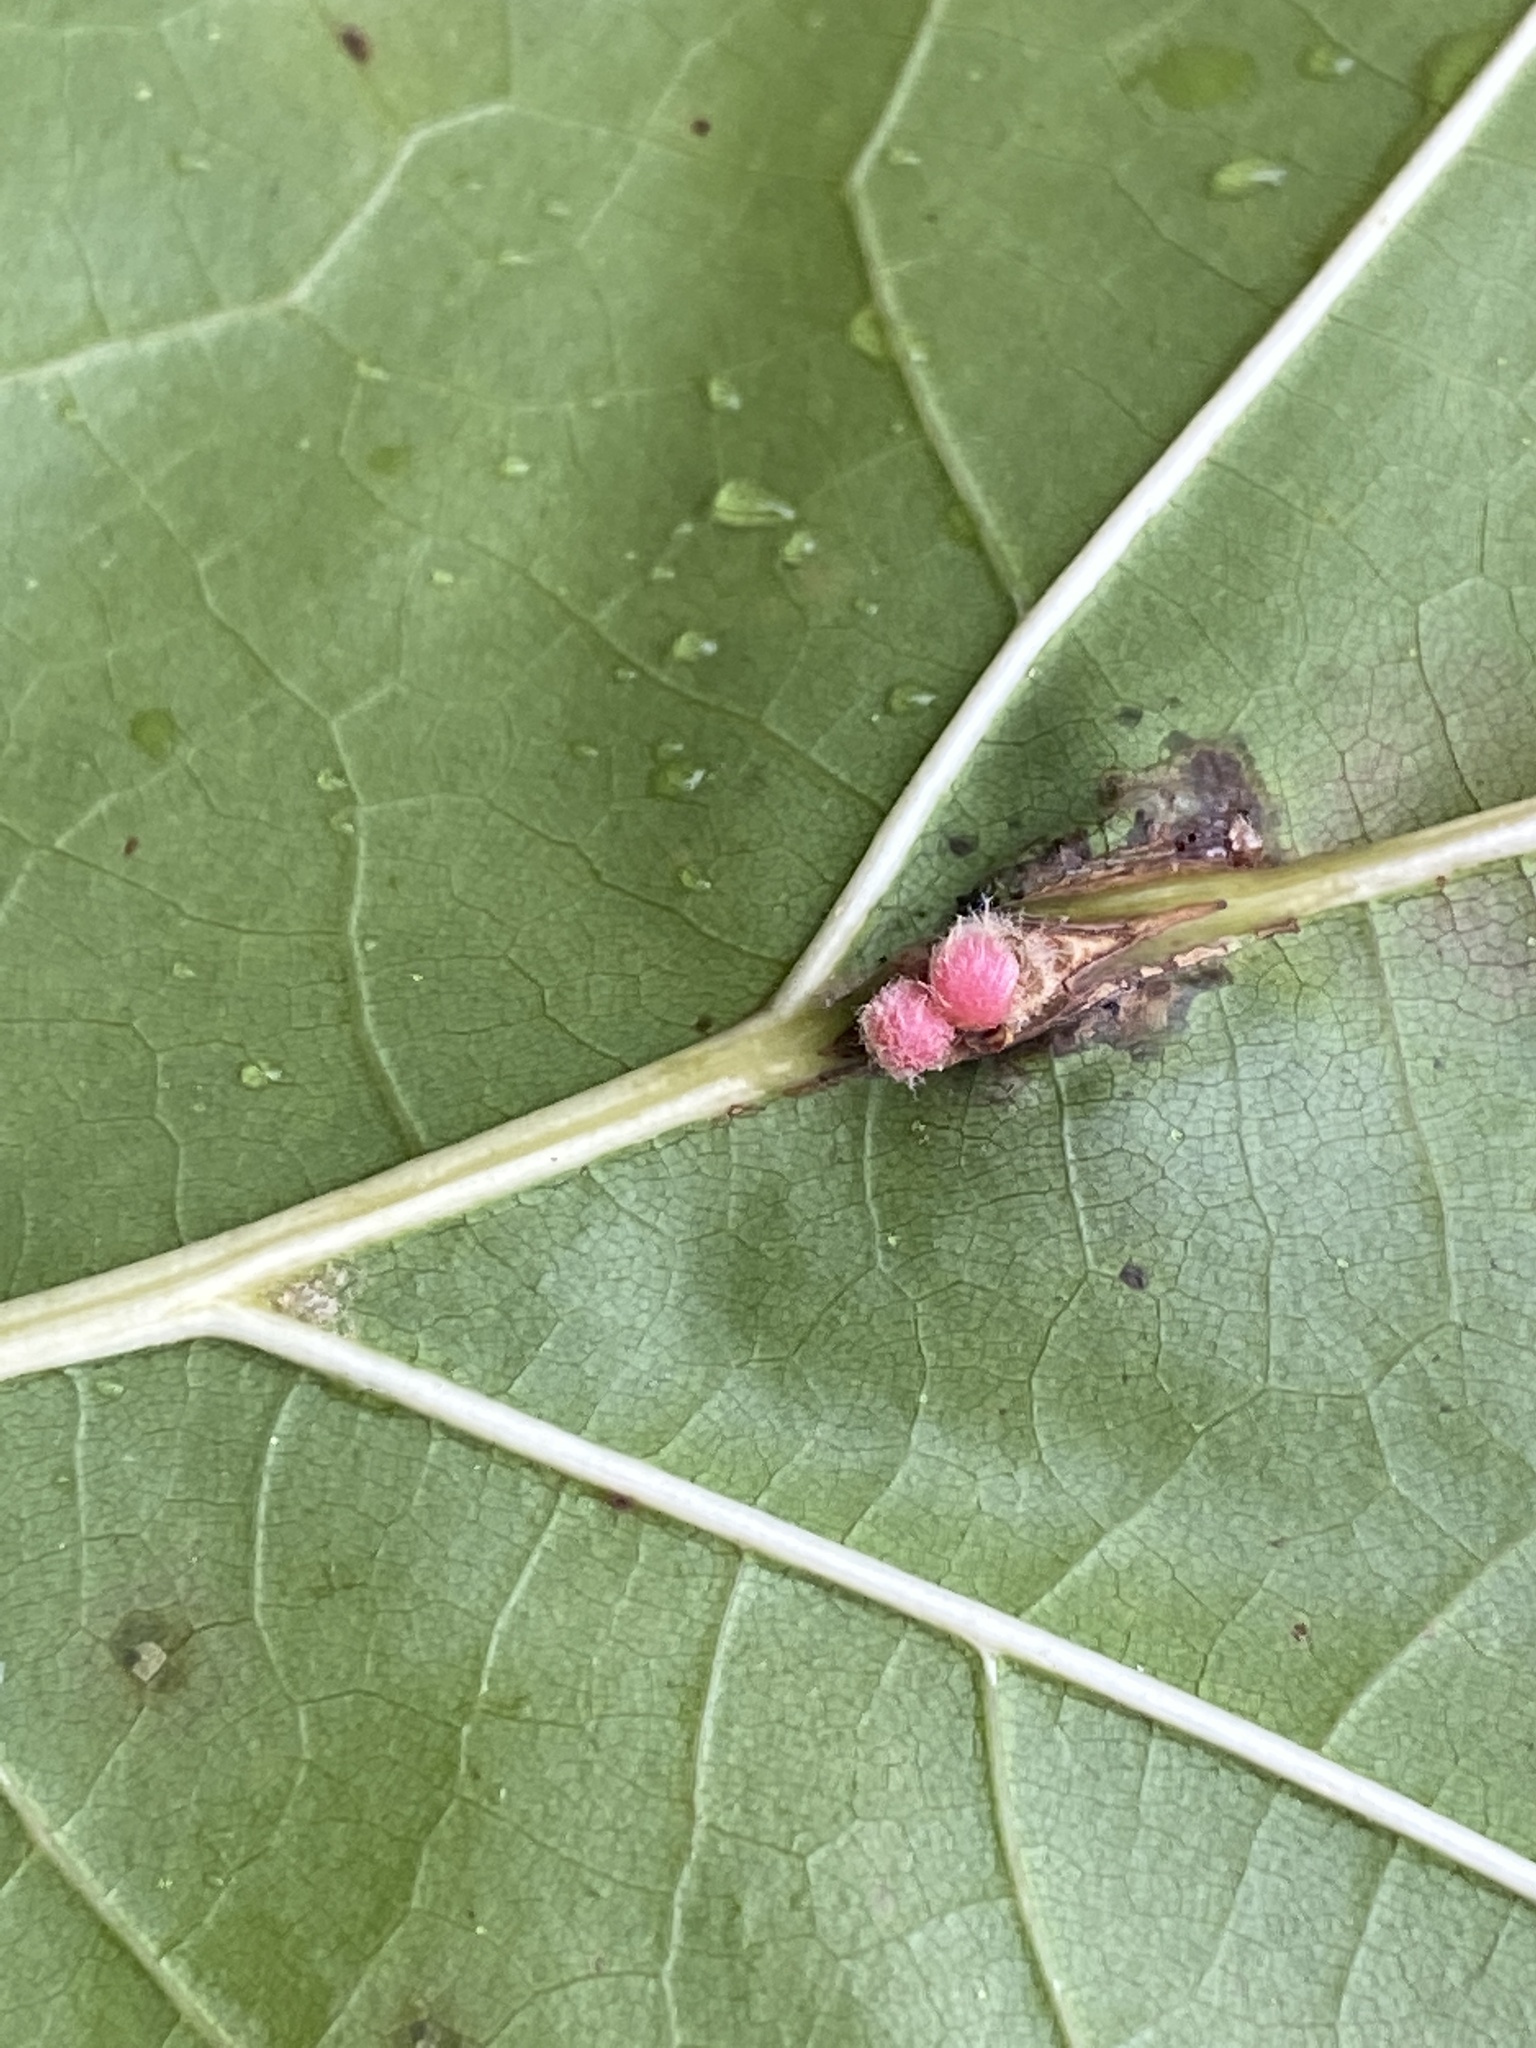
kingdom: Animalia
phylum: Arthropoda
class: Insecta
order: Hymenoptera
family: Cynipidae
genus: Callirhytis
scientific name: Callirhytis
